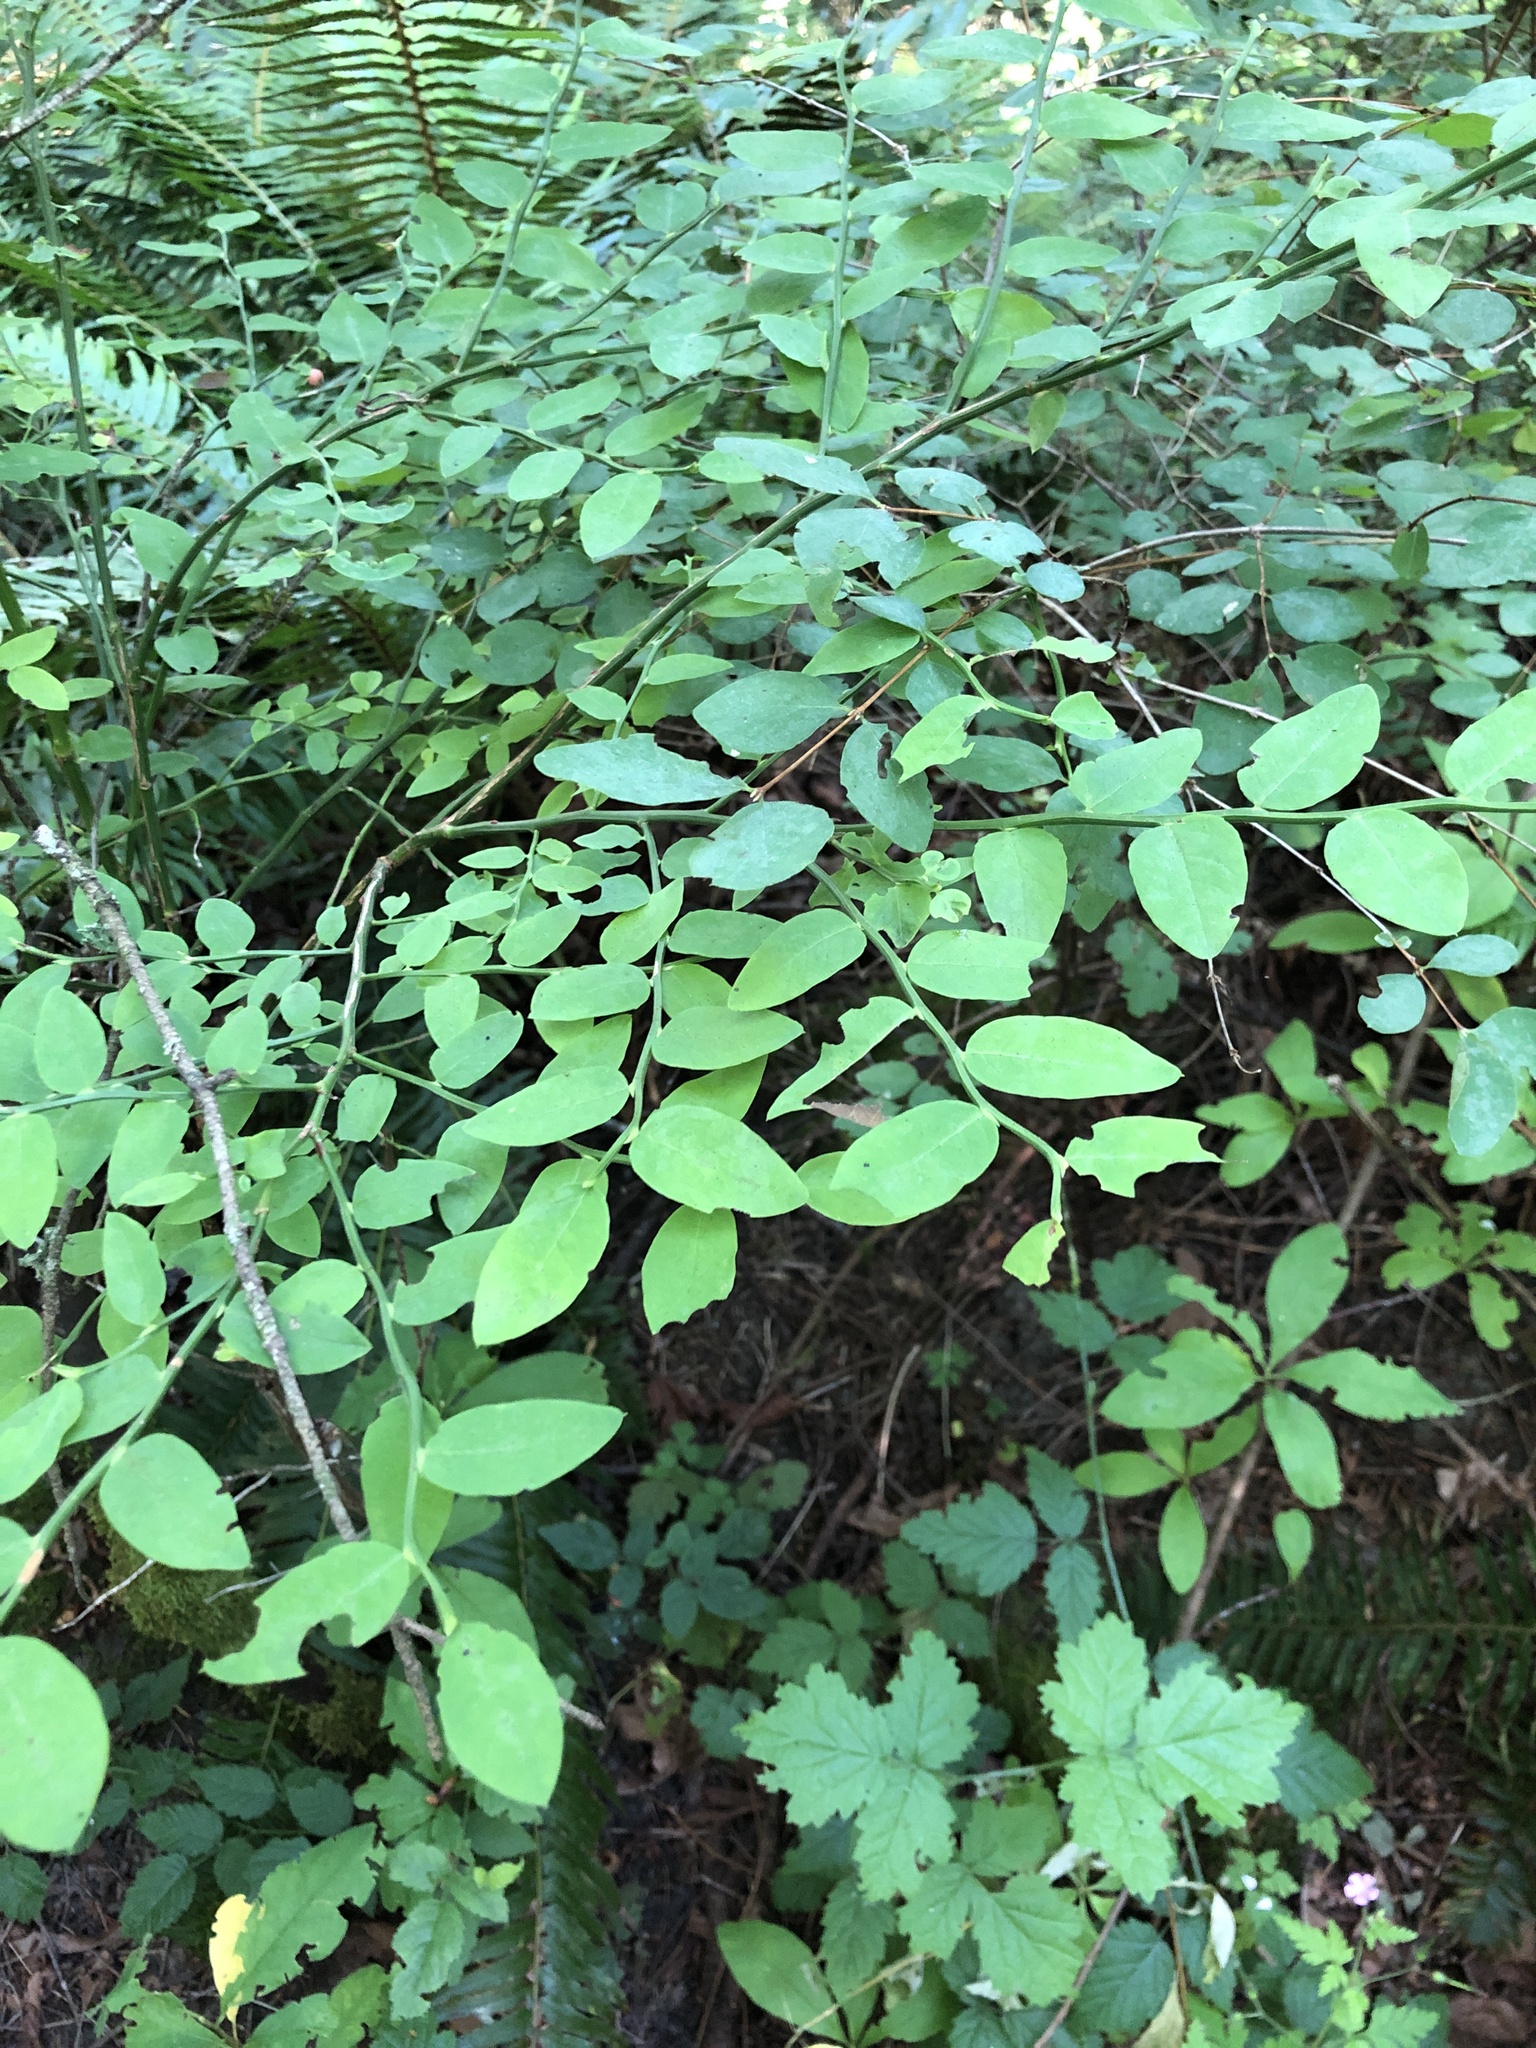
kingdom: Plantae
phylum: Tracheophyta
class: Magnoliopsida
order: Ericales
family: Ericaceae
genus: Vaccinium
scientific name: Vaccinium parvifolium
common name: Red-huckleberry
